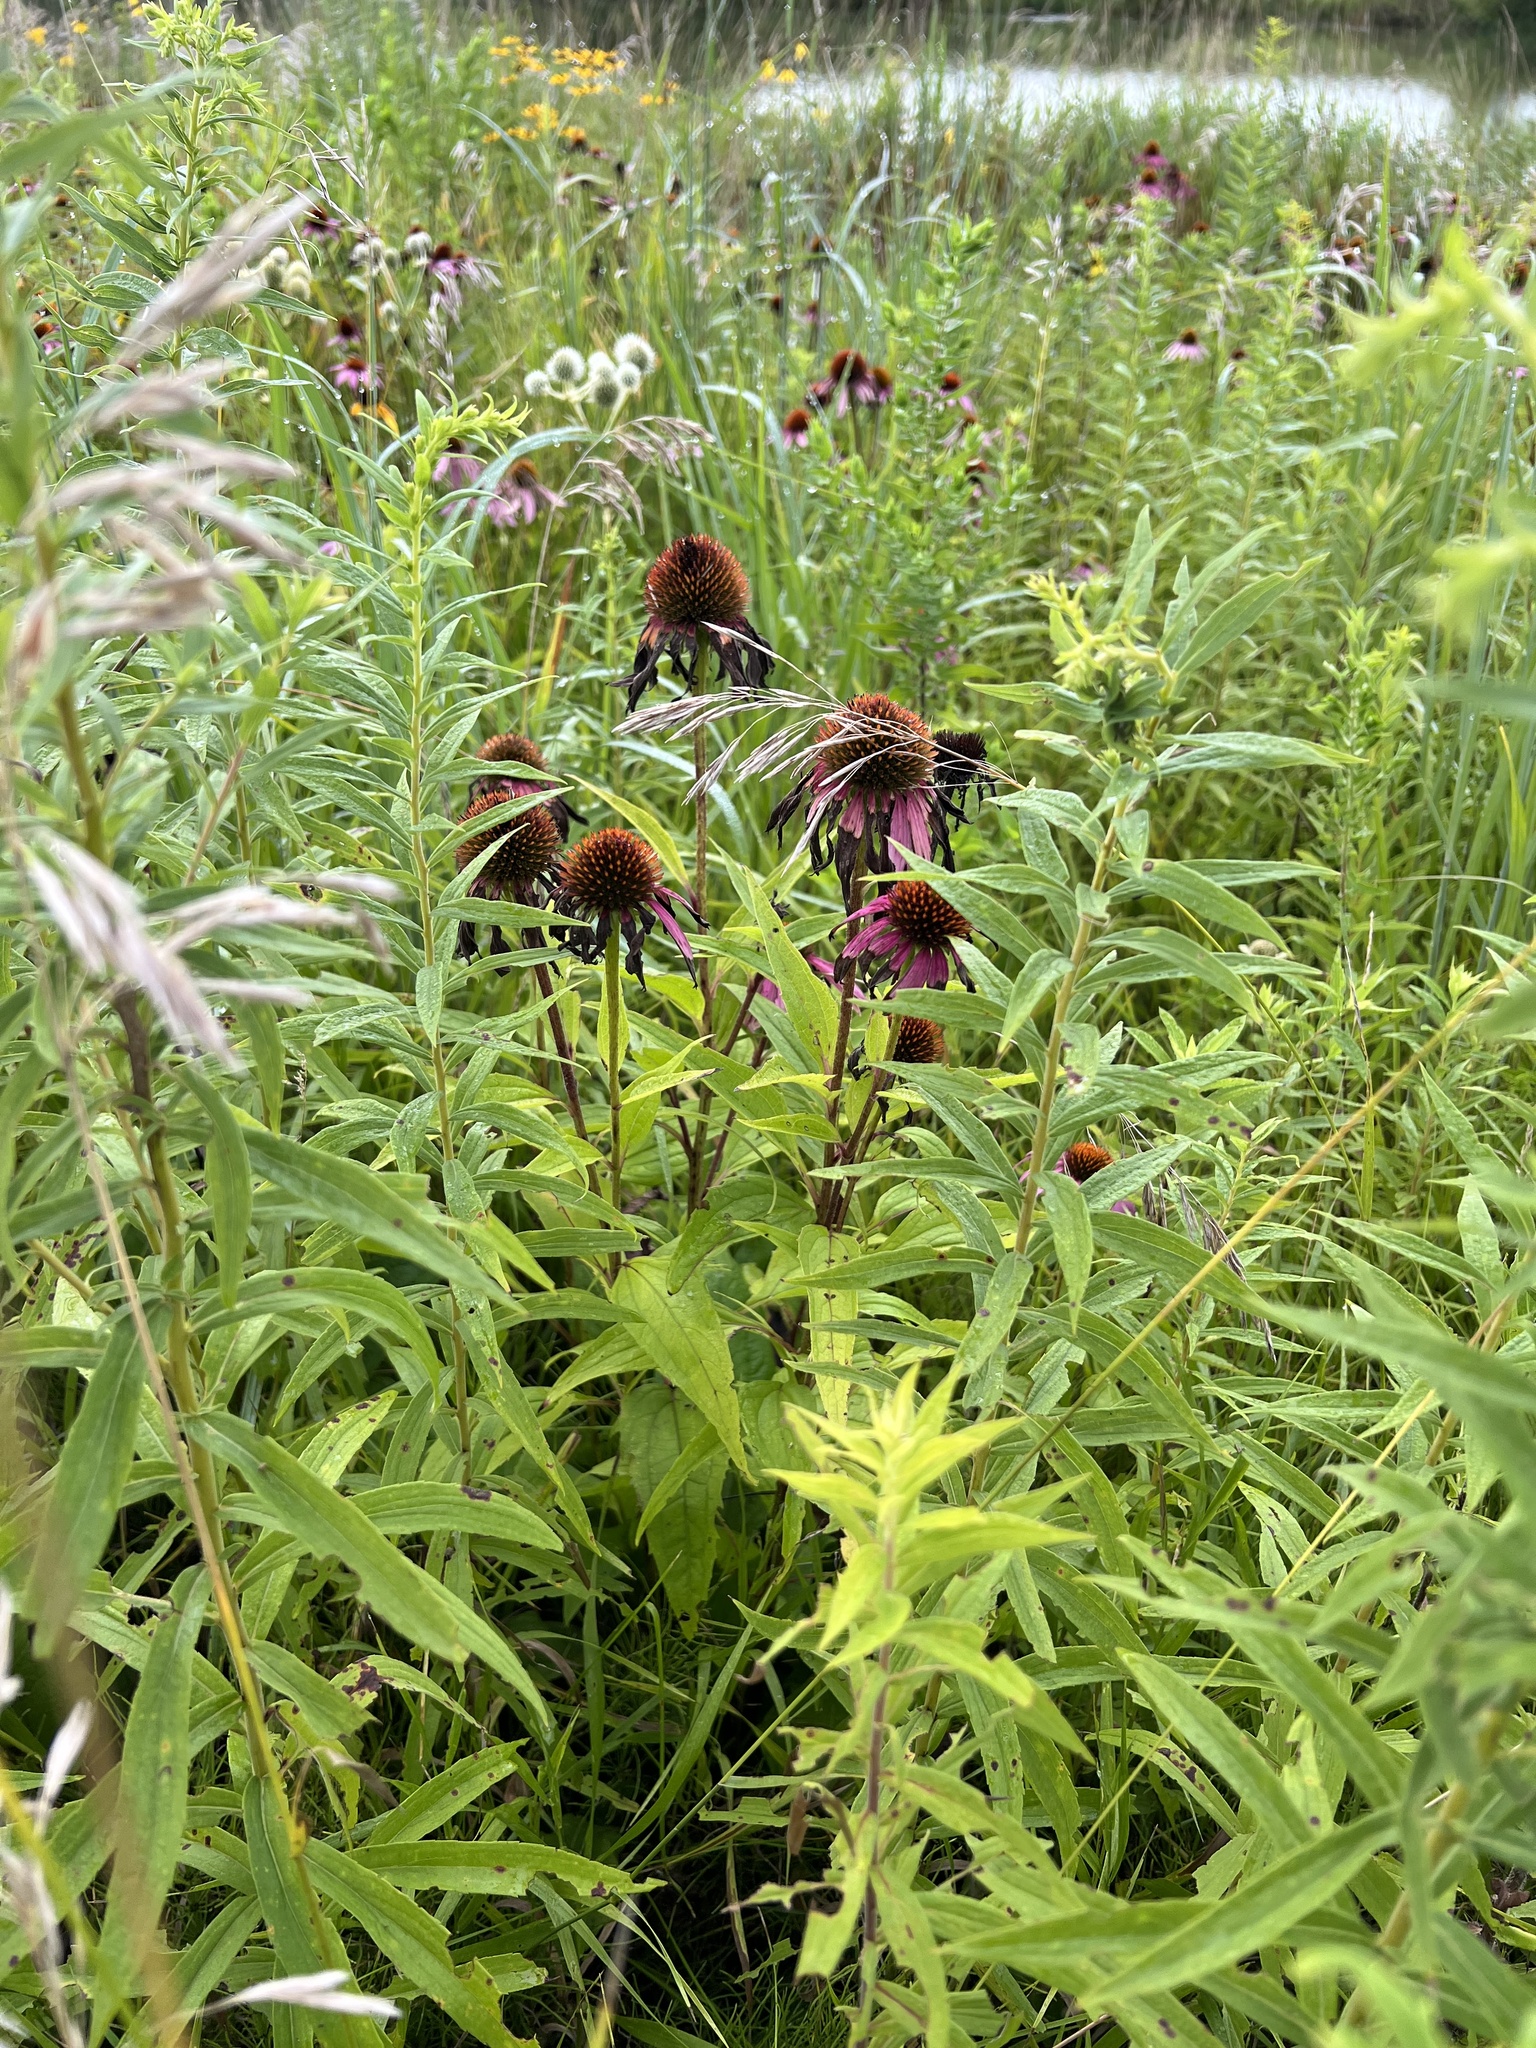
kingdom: Plantae
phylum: Tracheophyta
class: Magnoliopsida
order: Asterales
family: Asteraceae
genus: Echinacea
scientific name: Echinacea purpurea
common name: Broad-leaved purple coneflower
